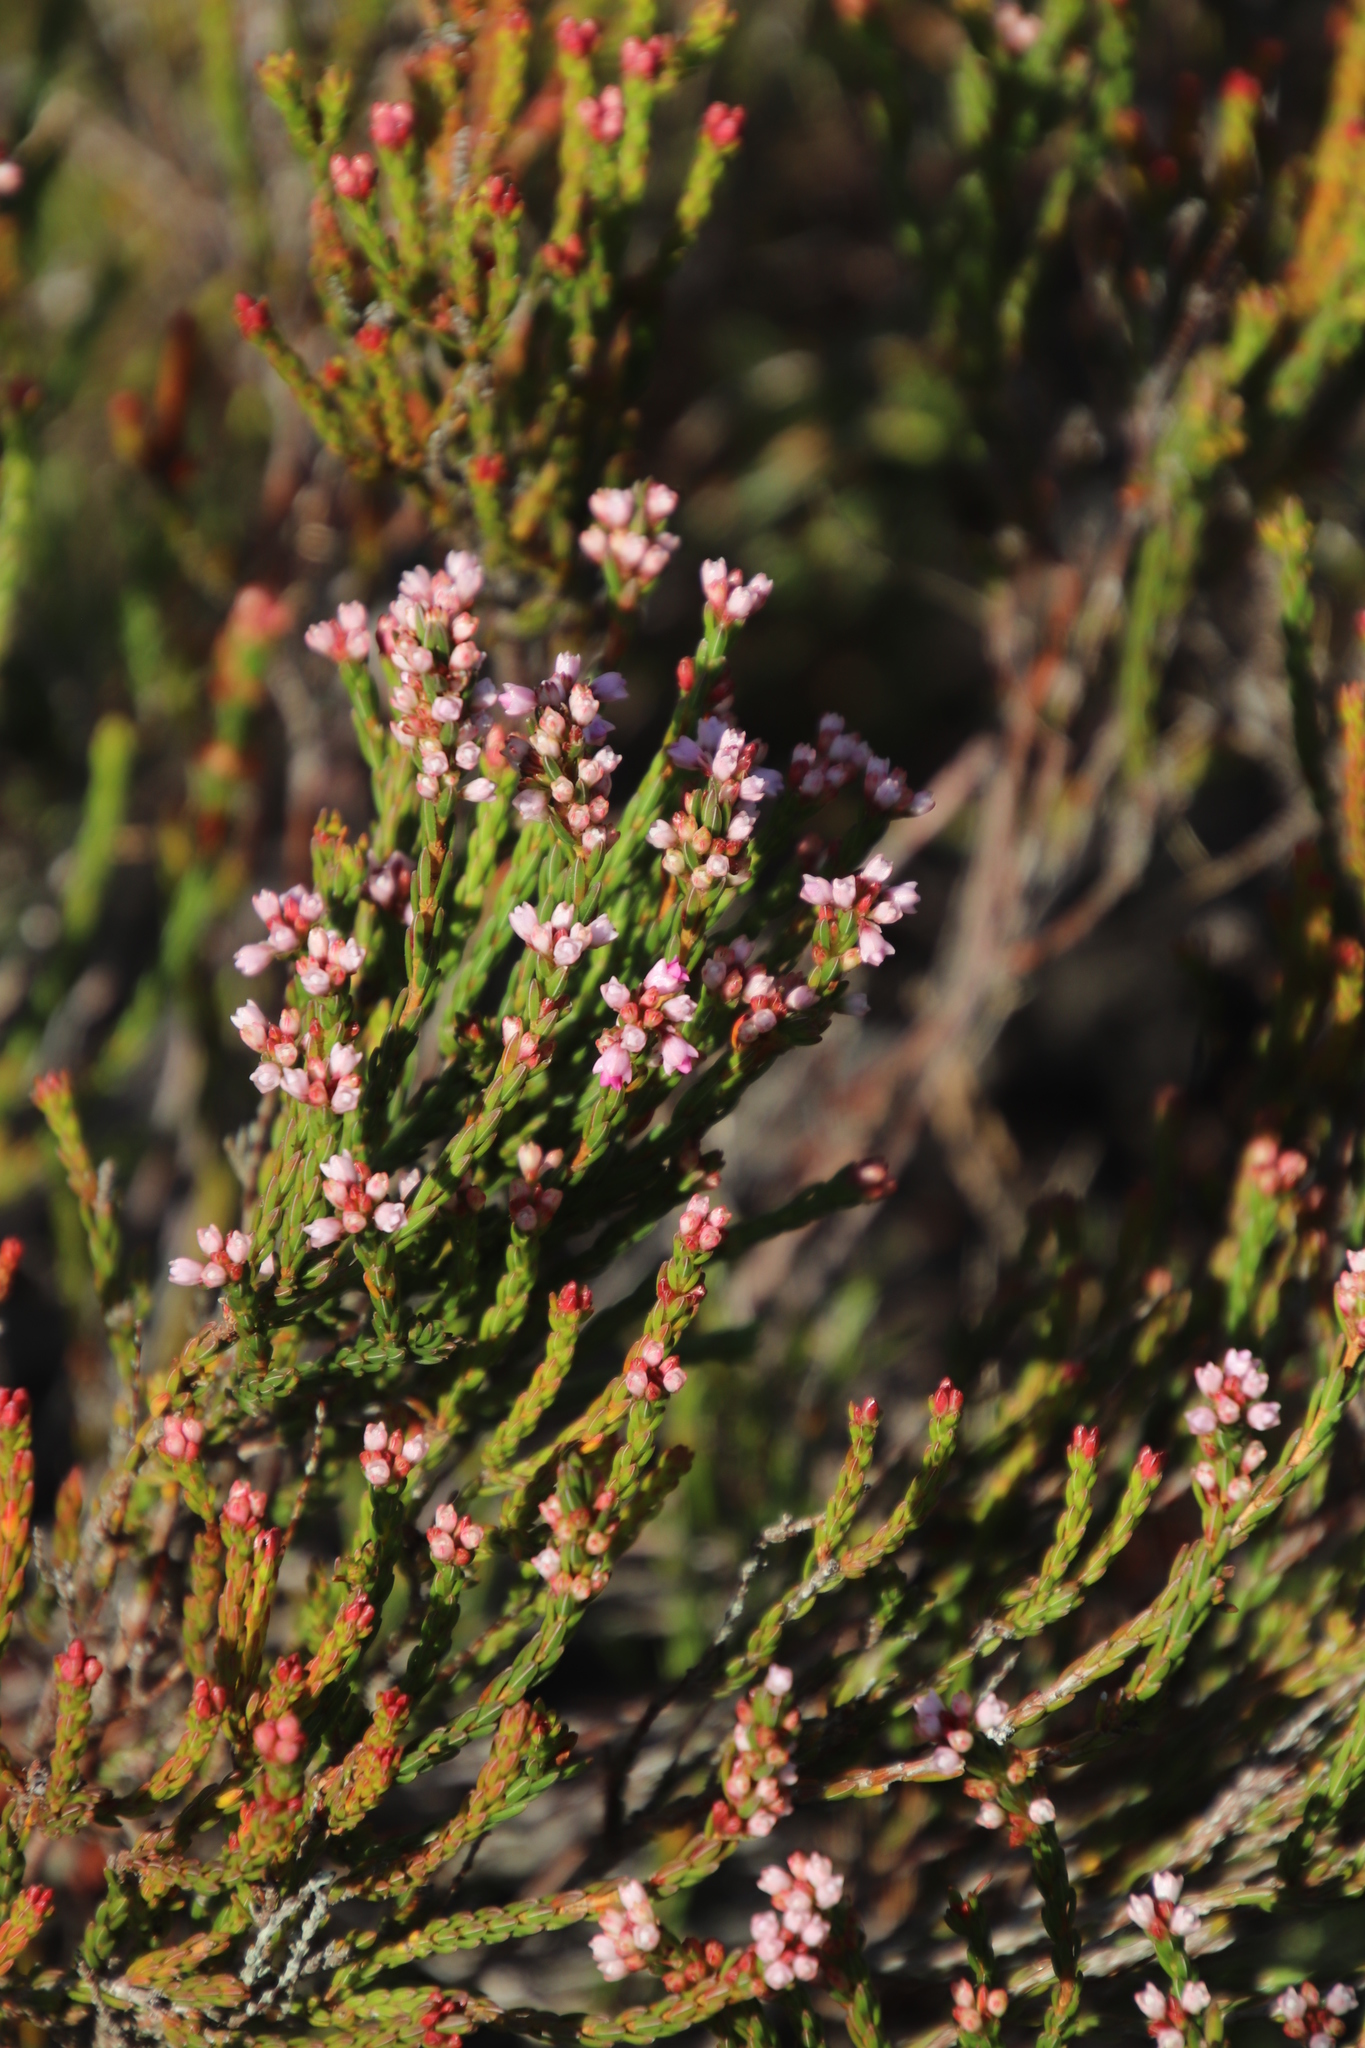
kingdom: Plantae
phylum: Tracheophyta
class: Magnoliopsida
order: Ericales
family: Ericaceae
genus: Erica
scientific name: Erica articularis
